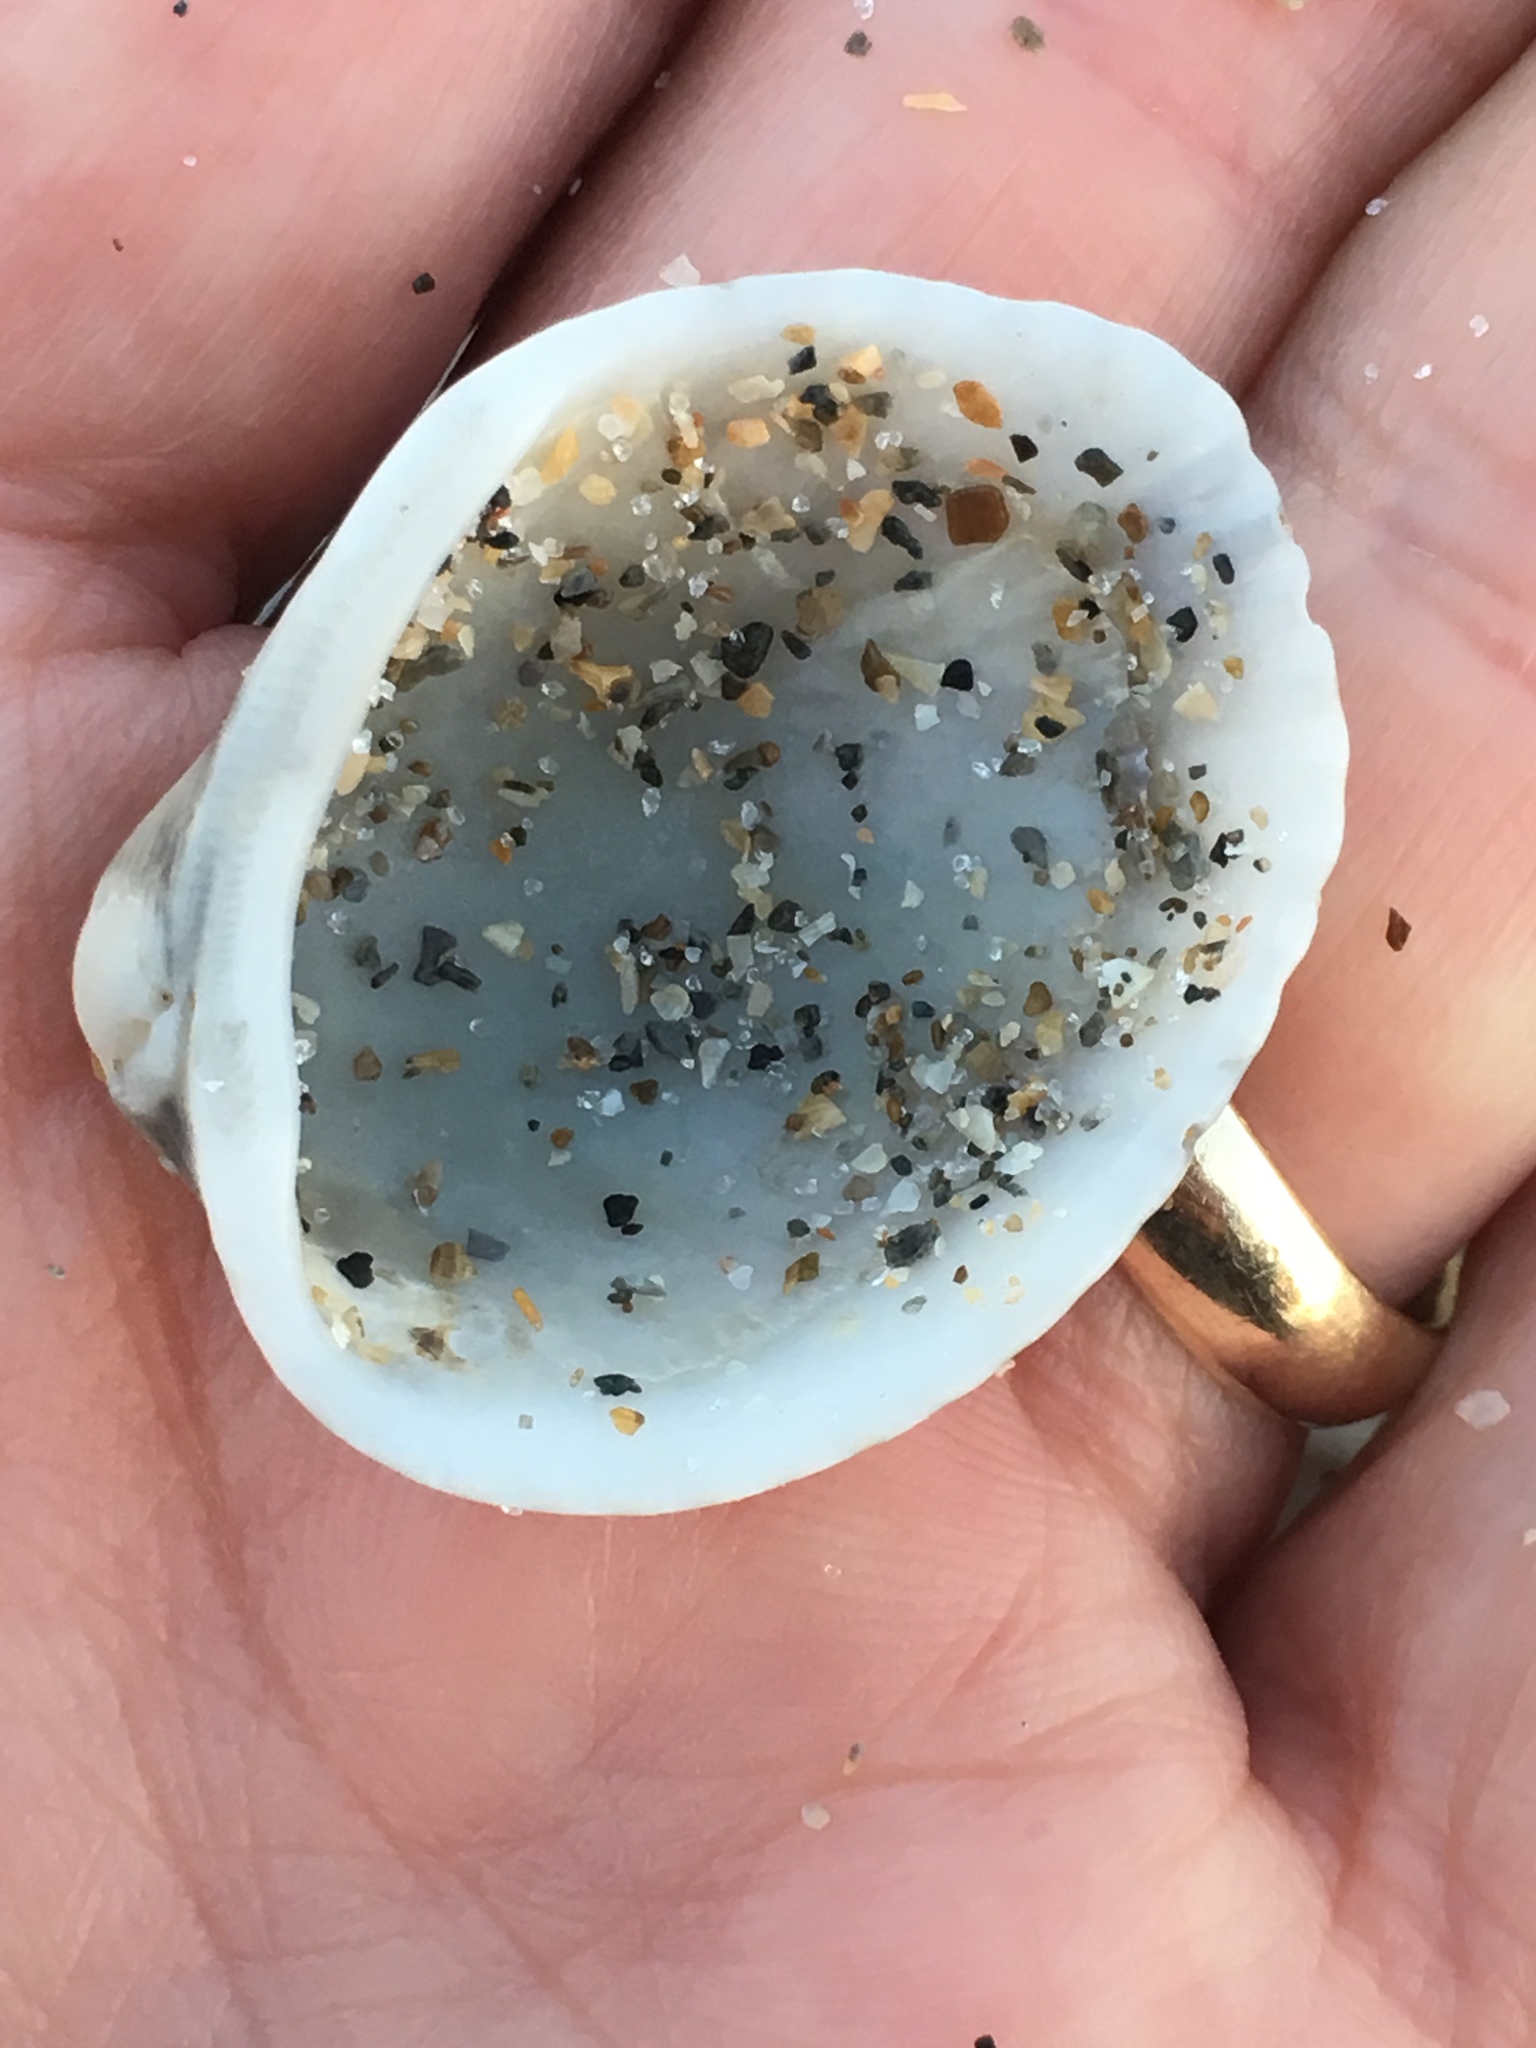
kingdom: Animalia
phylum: Mollusca
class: Bivalvia
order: Arcida
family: Arcidae
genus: Lunarca
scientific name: Lunarca ovalis
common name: Blood ark
